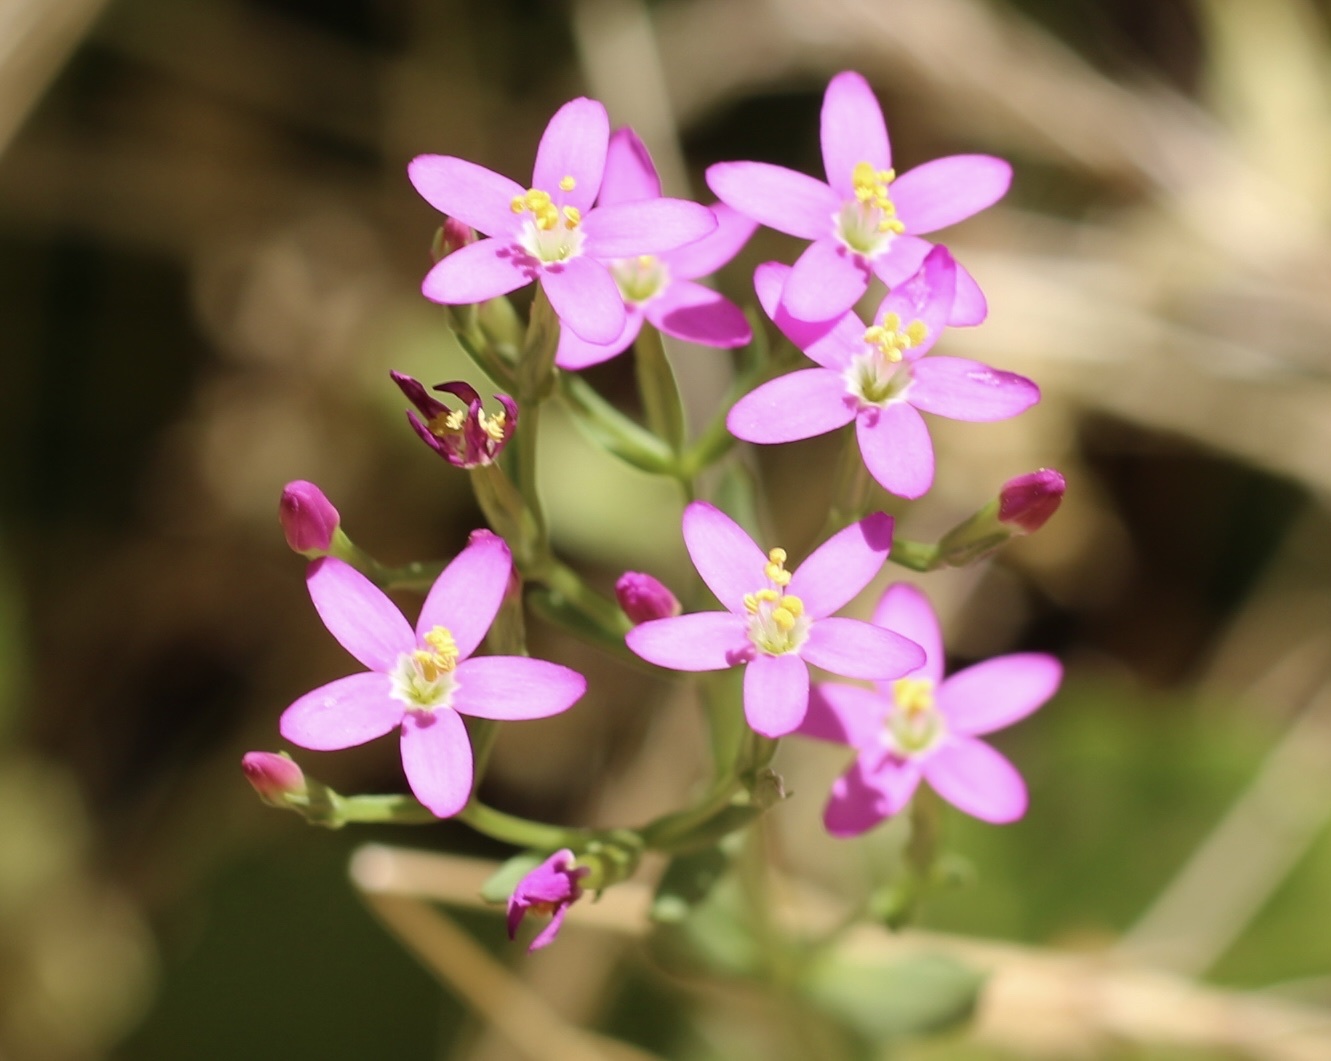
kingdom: Plantae
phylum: Tracheophyta
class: Magnoliopsida
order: Gentianales
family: Gentianaceae
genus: Zeltnera
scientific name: Zeltnera muhlenbergii
